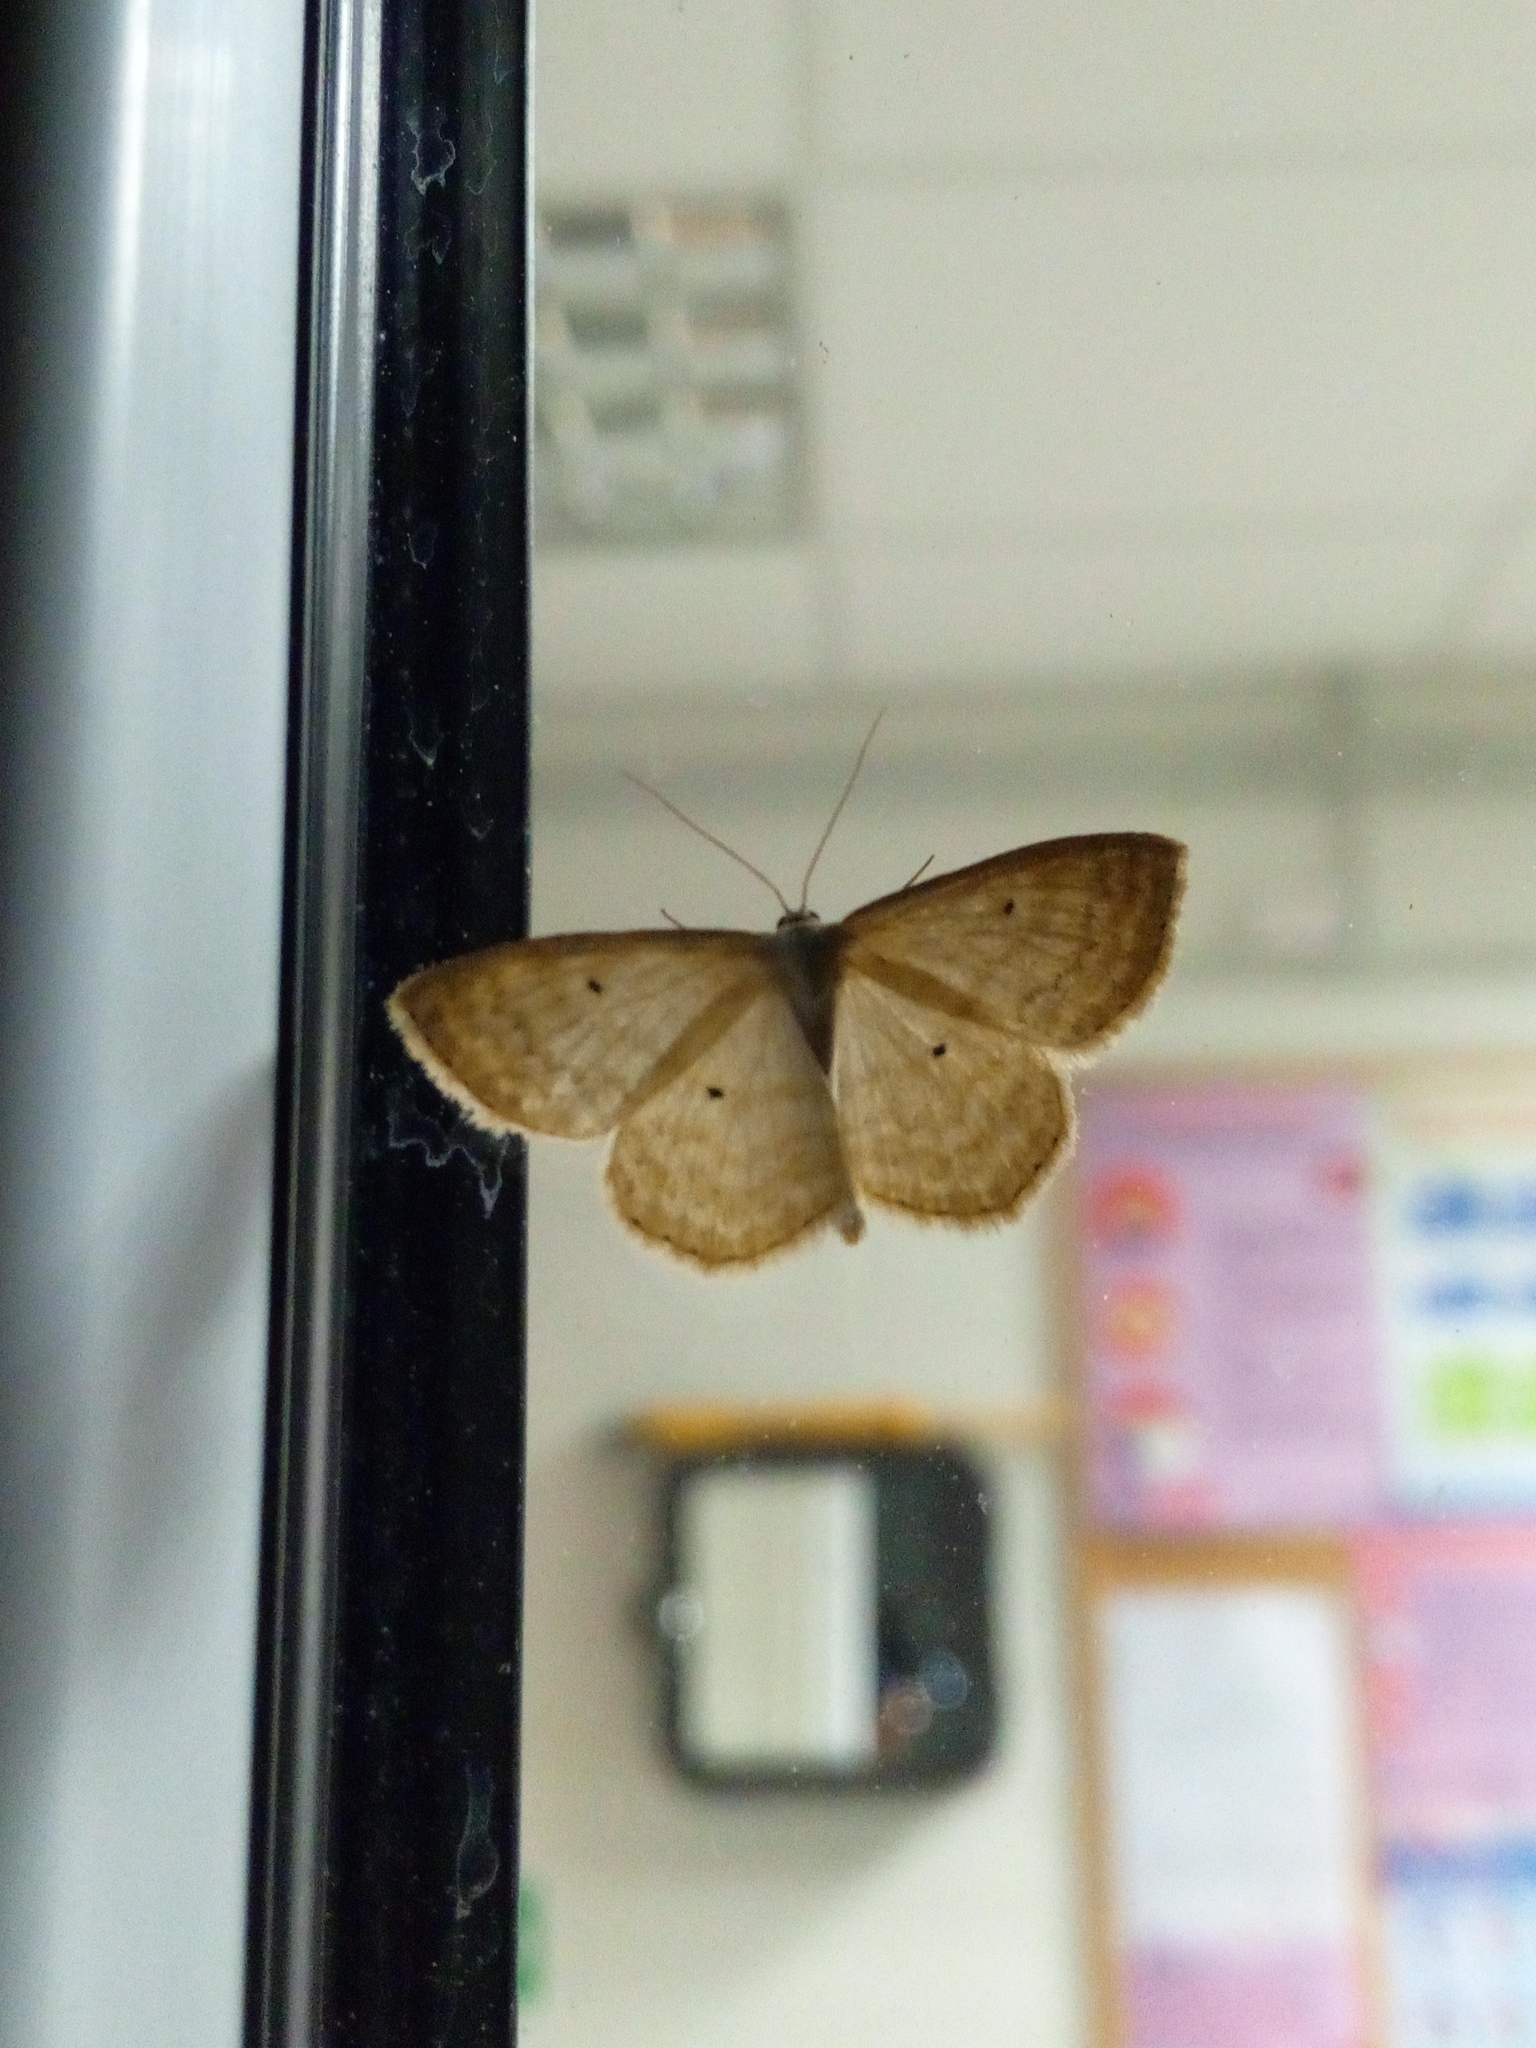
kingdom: Animalia
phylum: Arthropoda
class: Insecta
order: Lepidoptera
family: Geometridae
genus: Scopula
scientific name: Scopula immutata
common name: Lesser cream wave
